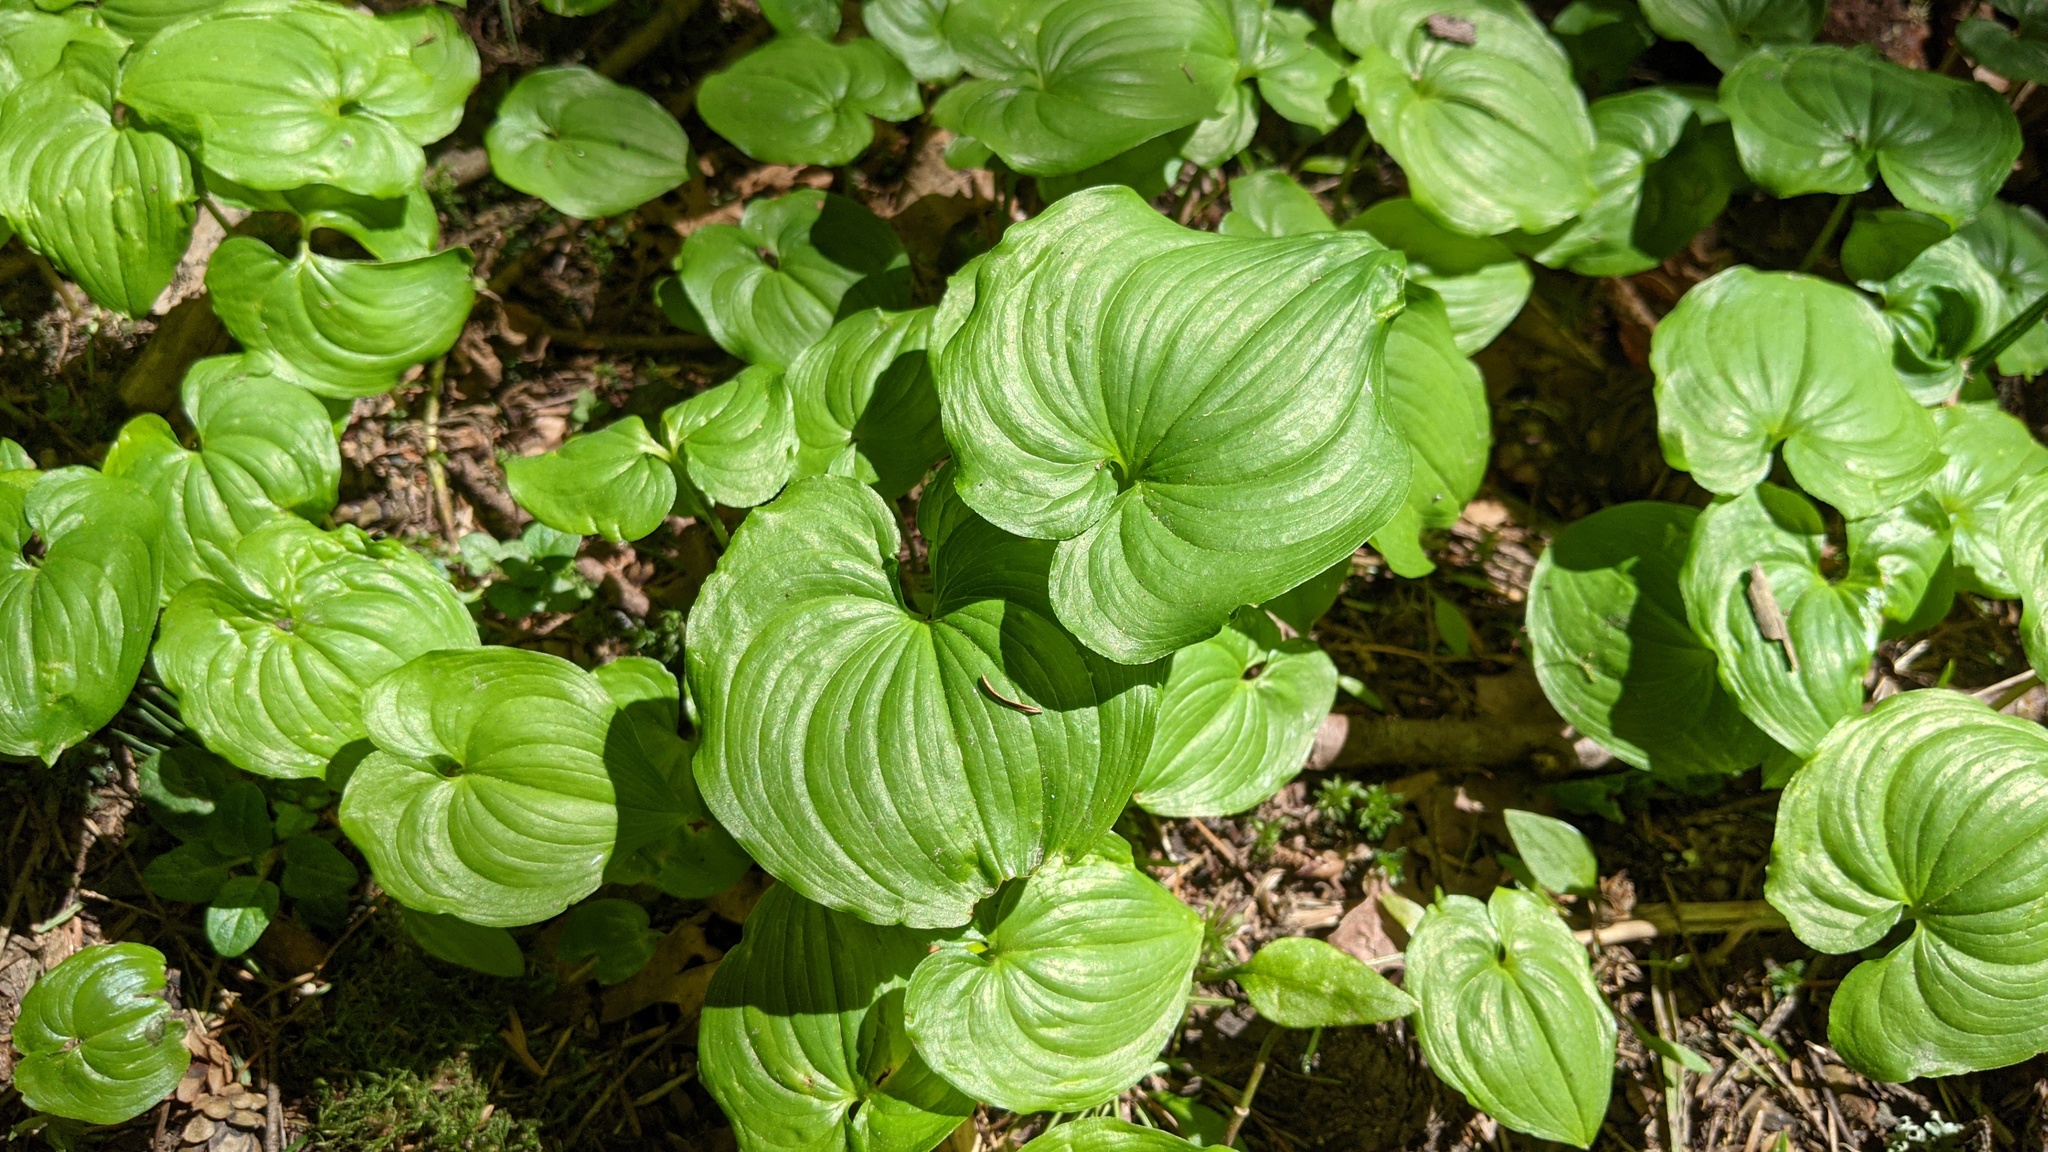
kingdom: Plantae
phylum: Tracheophyta
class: Liliopsida
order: Asparagales
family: Asparagaceae
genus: Maianthemum
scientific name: Maianthemum dilatatum
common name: False lily-of-the-valley
